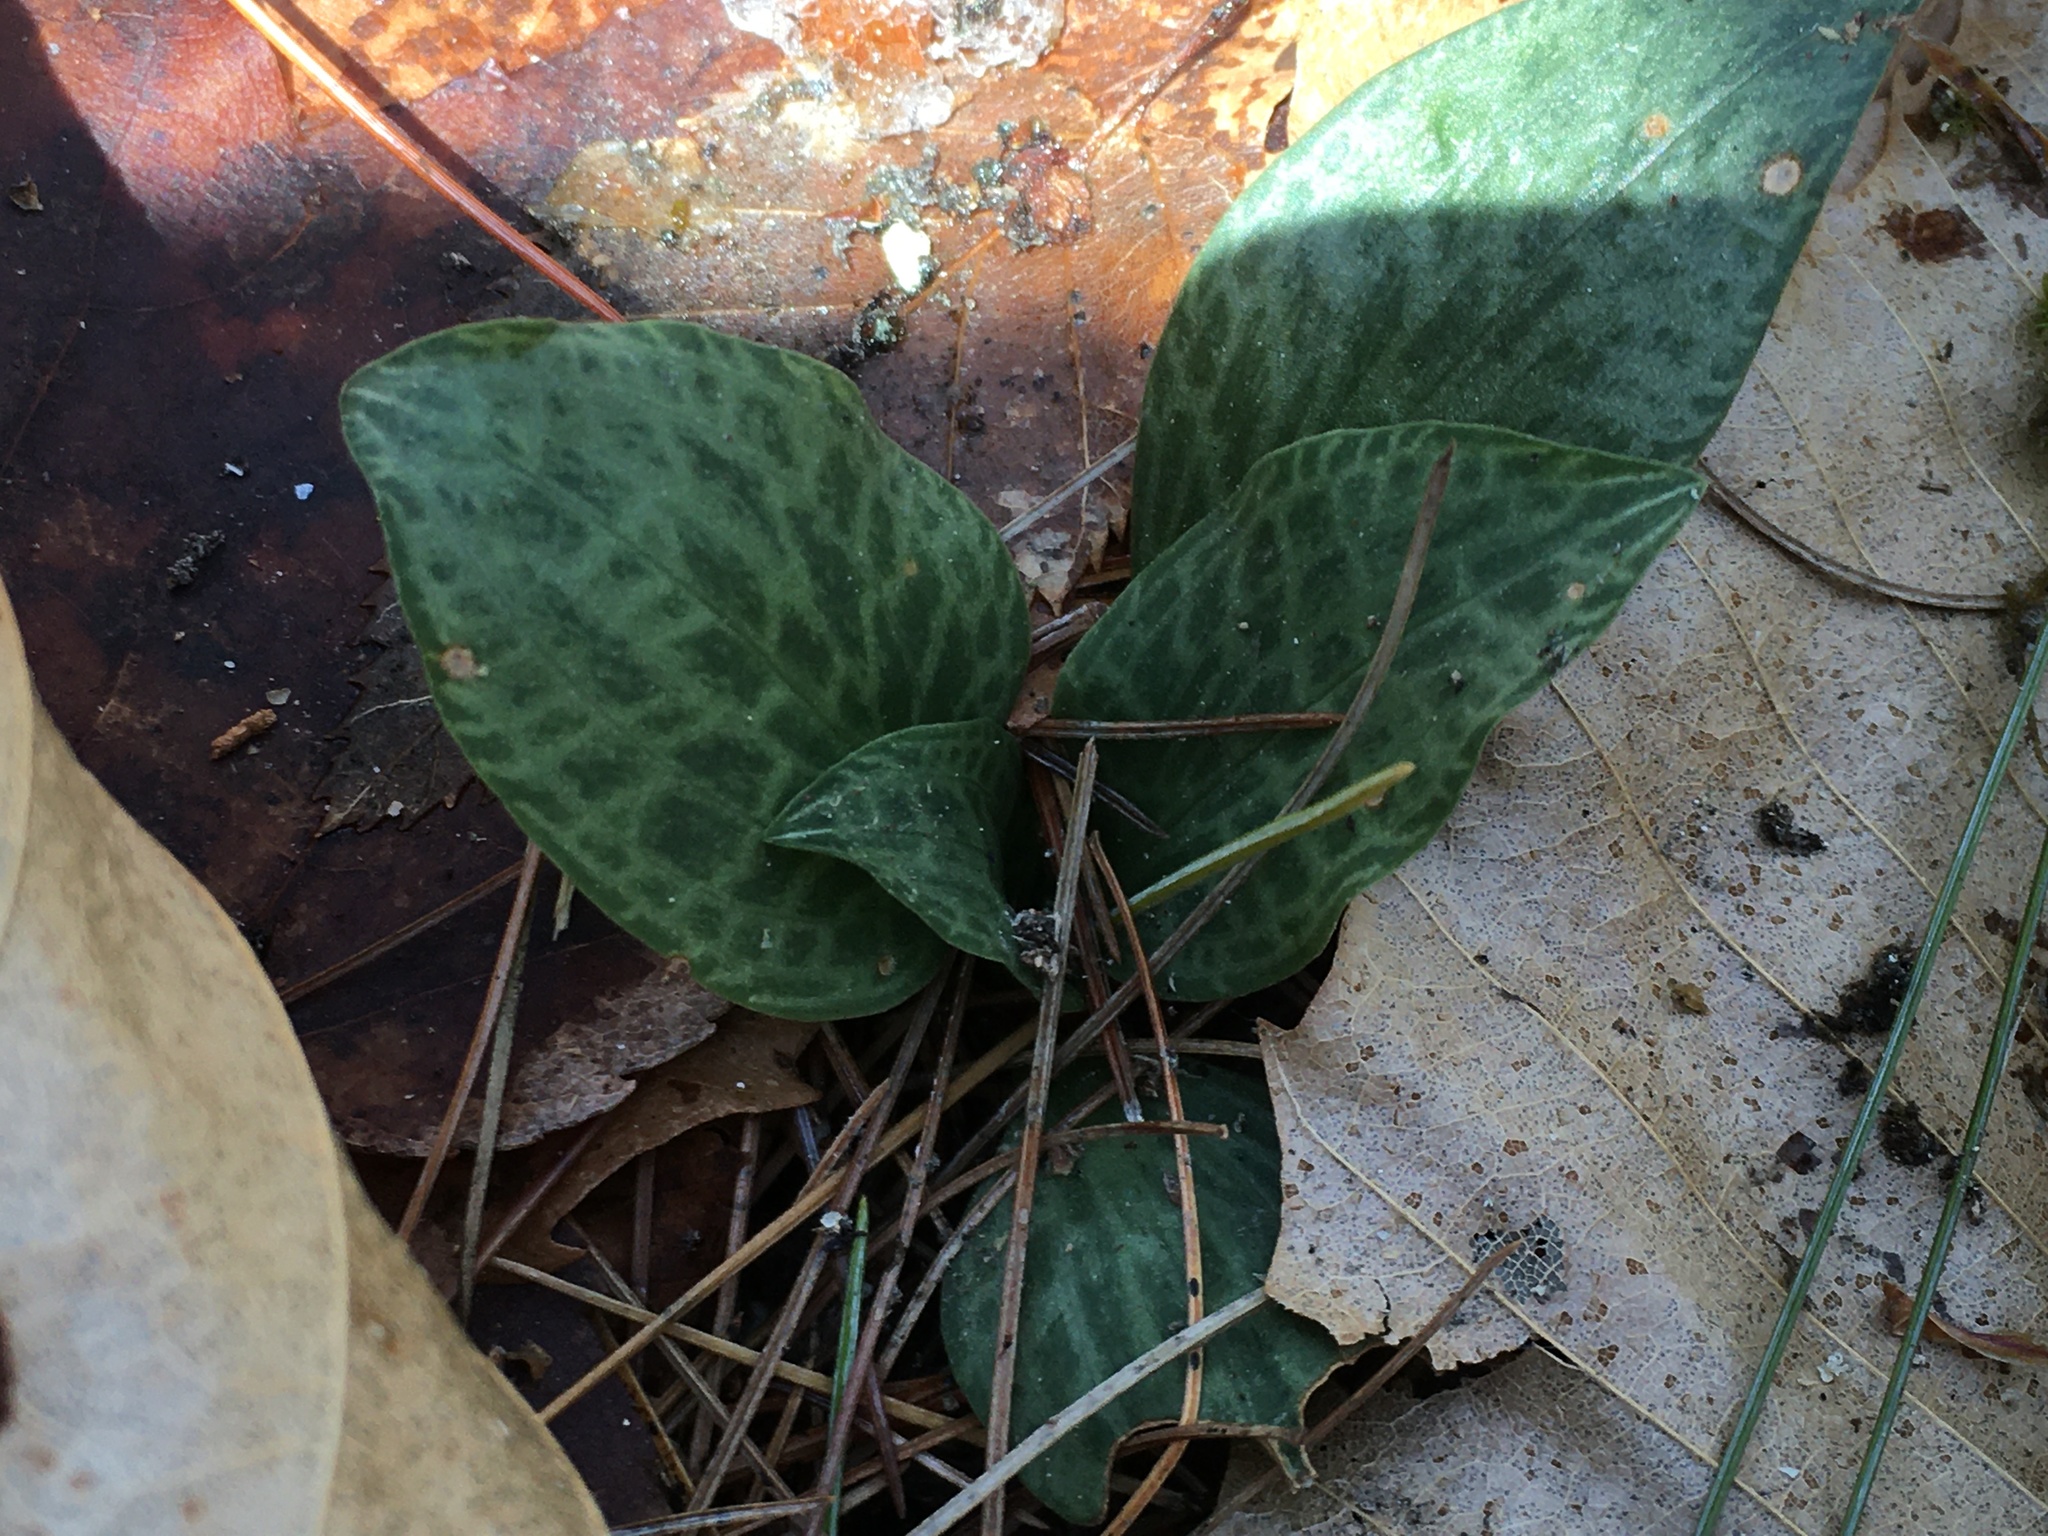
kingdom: Plantae
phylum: Tracheophyta
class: Liliopsida
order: Asparagales
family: Orchidaceae
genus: Goodyera
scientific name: Goodyera tesselata
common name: Checkered rattlesnake-plantain
